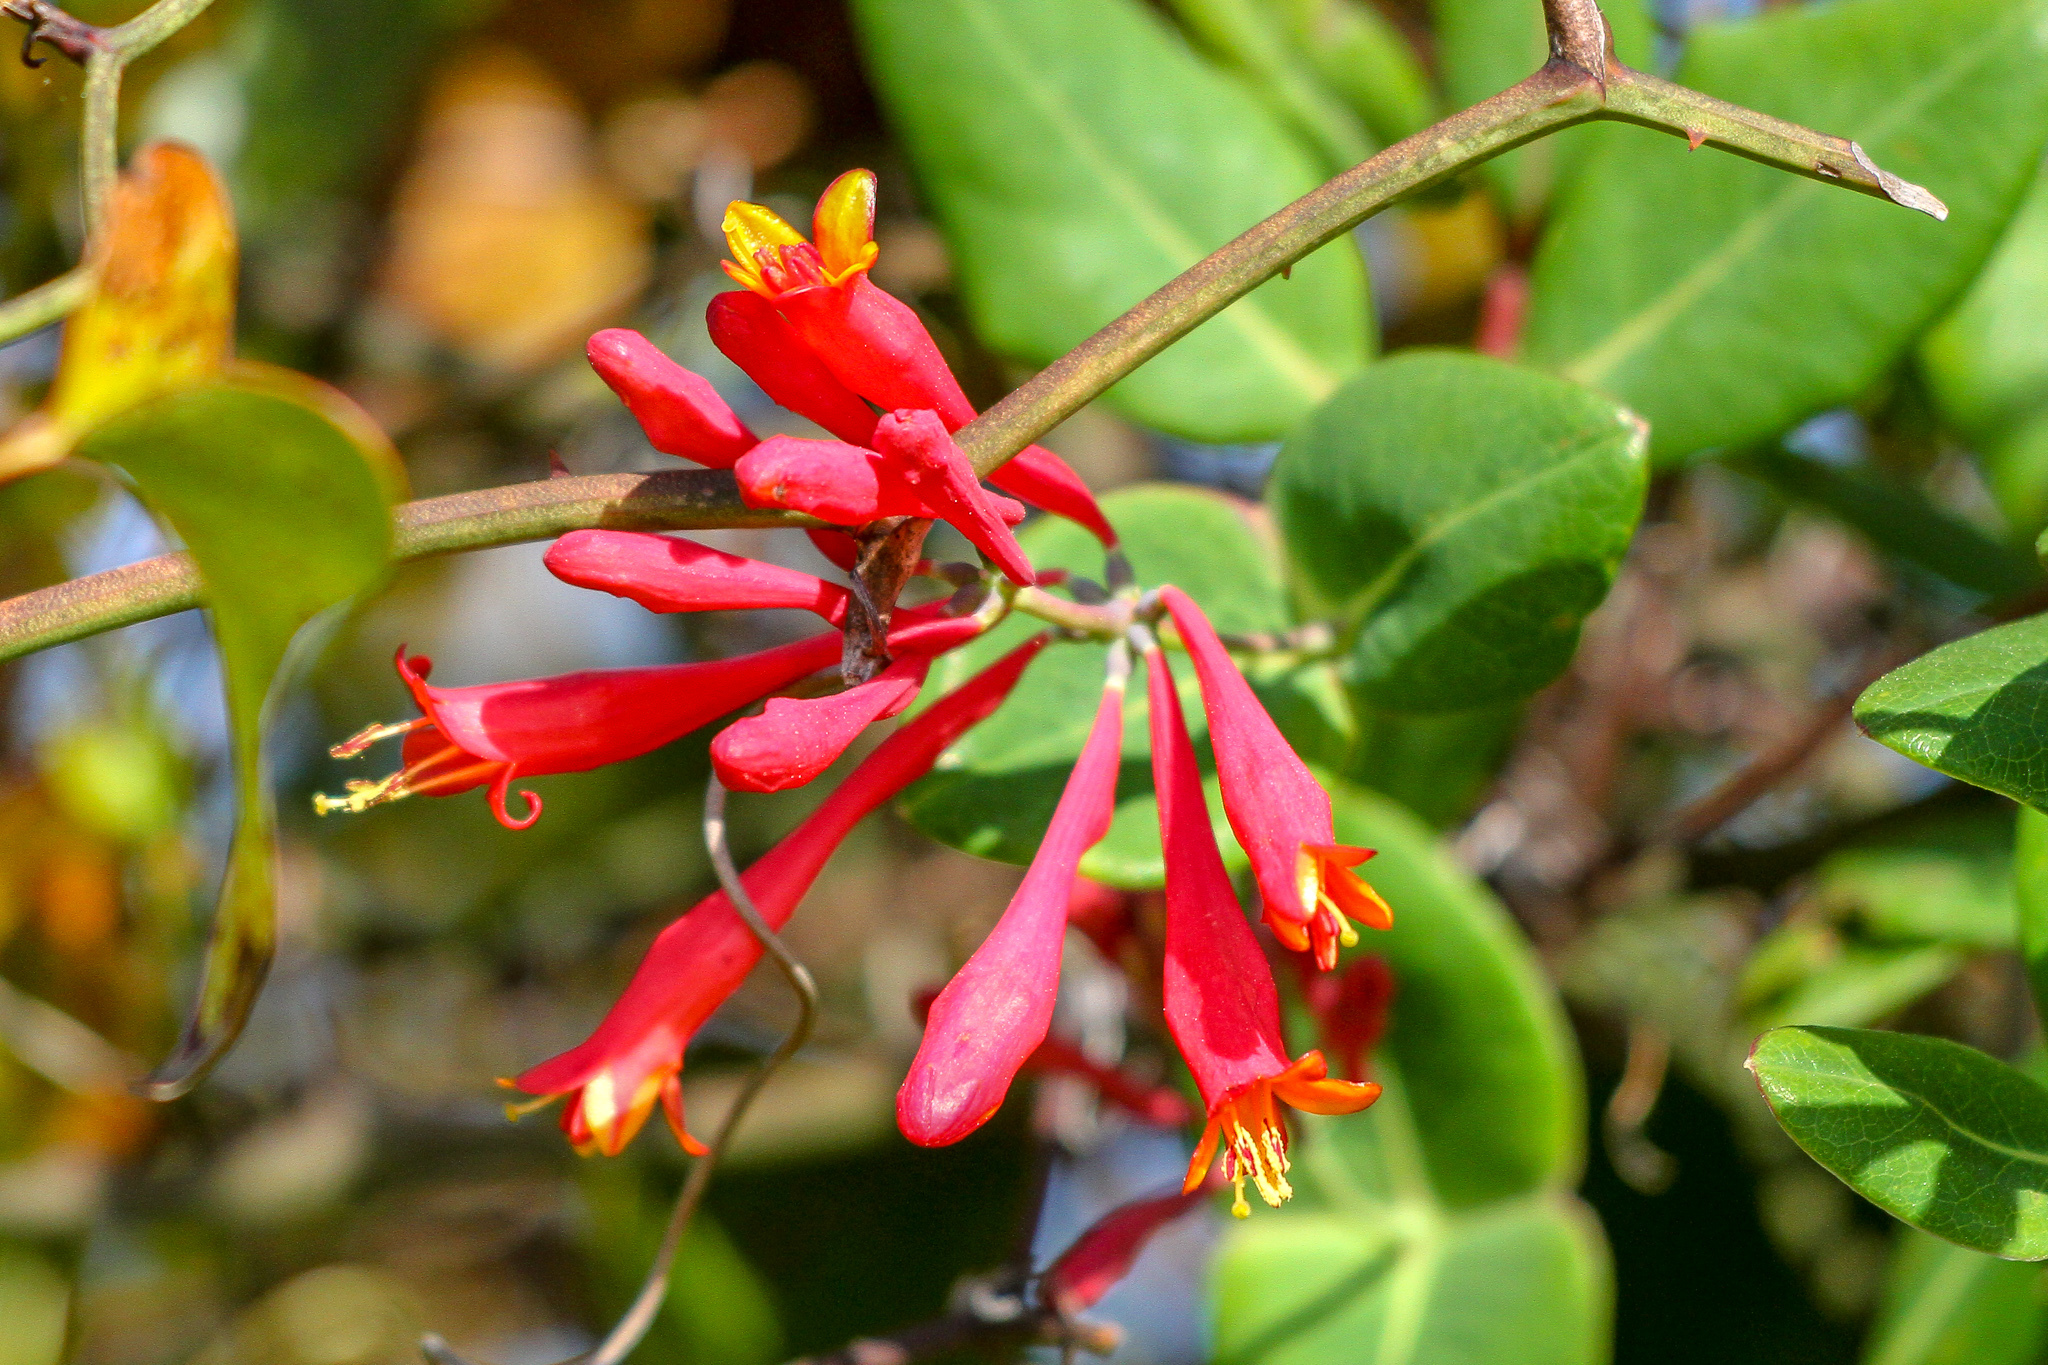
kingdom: Plantae
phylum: Tracheophyta
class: Magnoliopsida
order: Dipsacales
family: Caprifoliaceae
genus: Lonicera
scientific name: Lonicera sempervirens
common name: Coral honeysuckle
